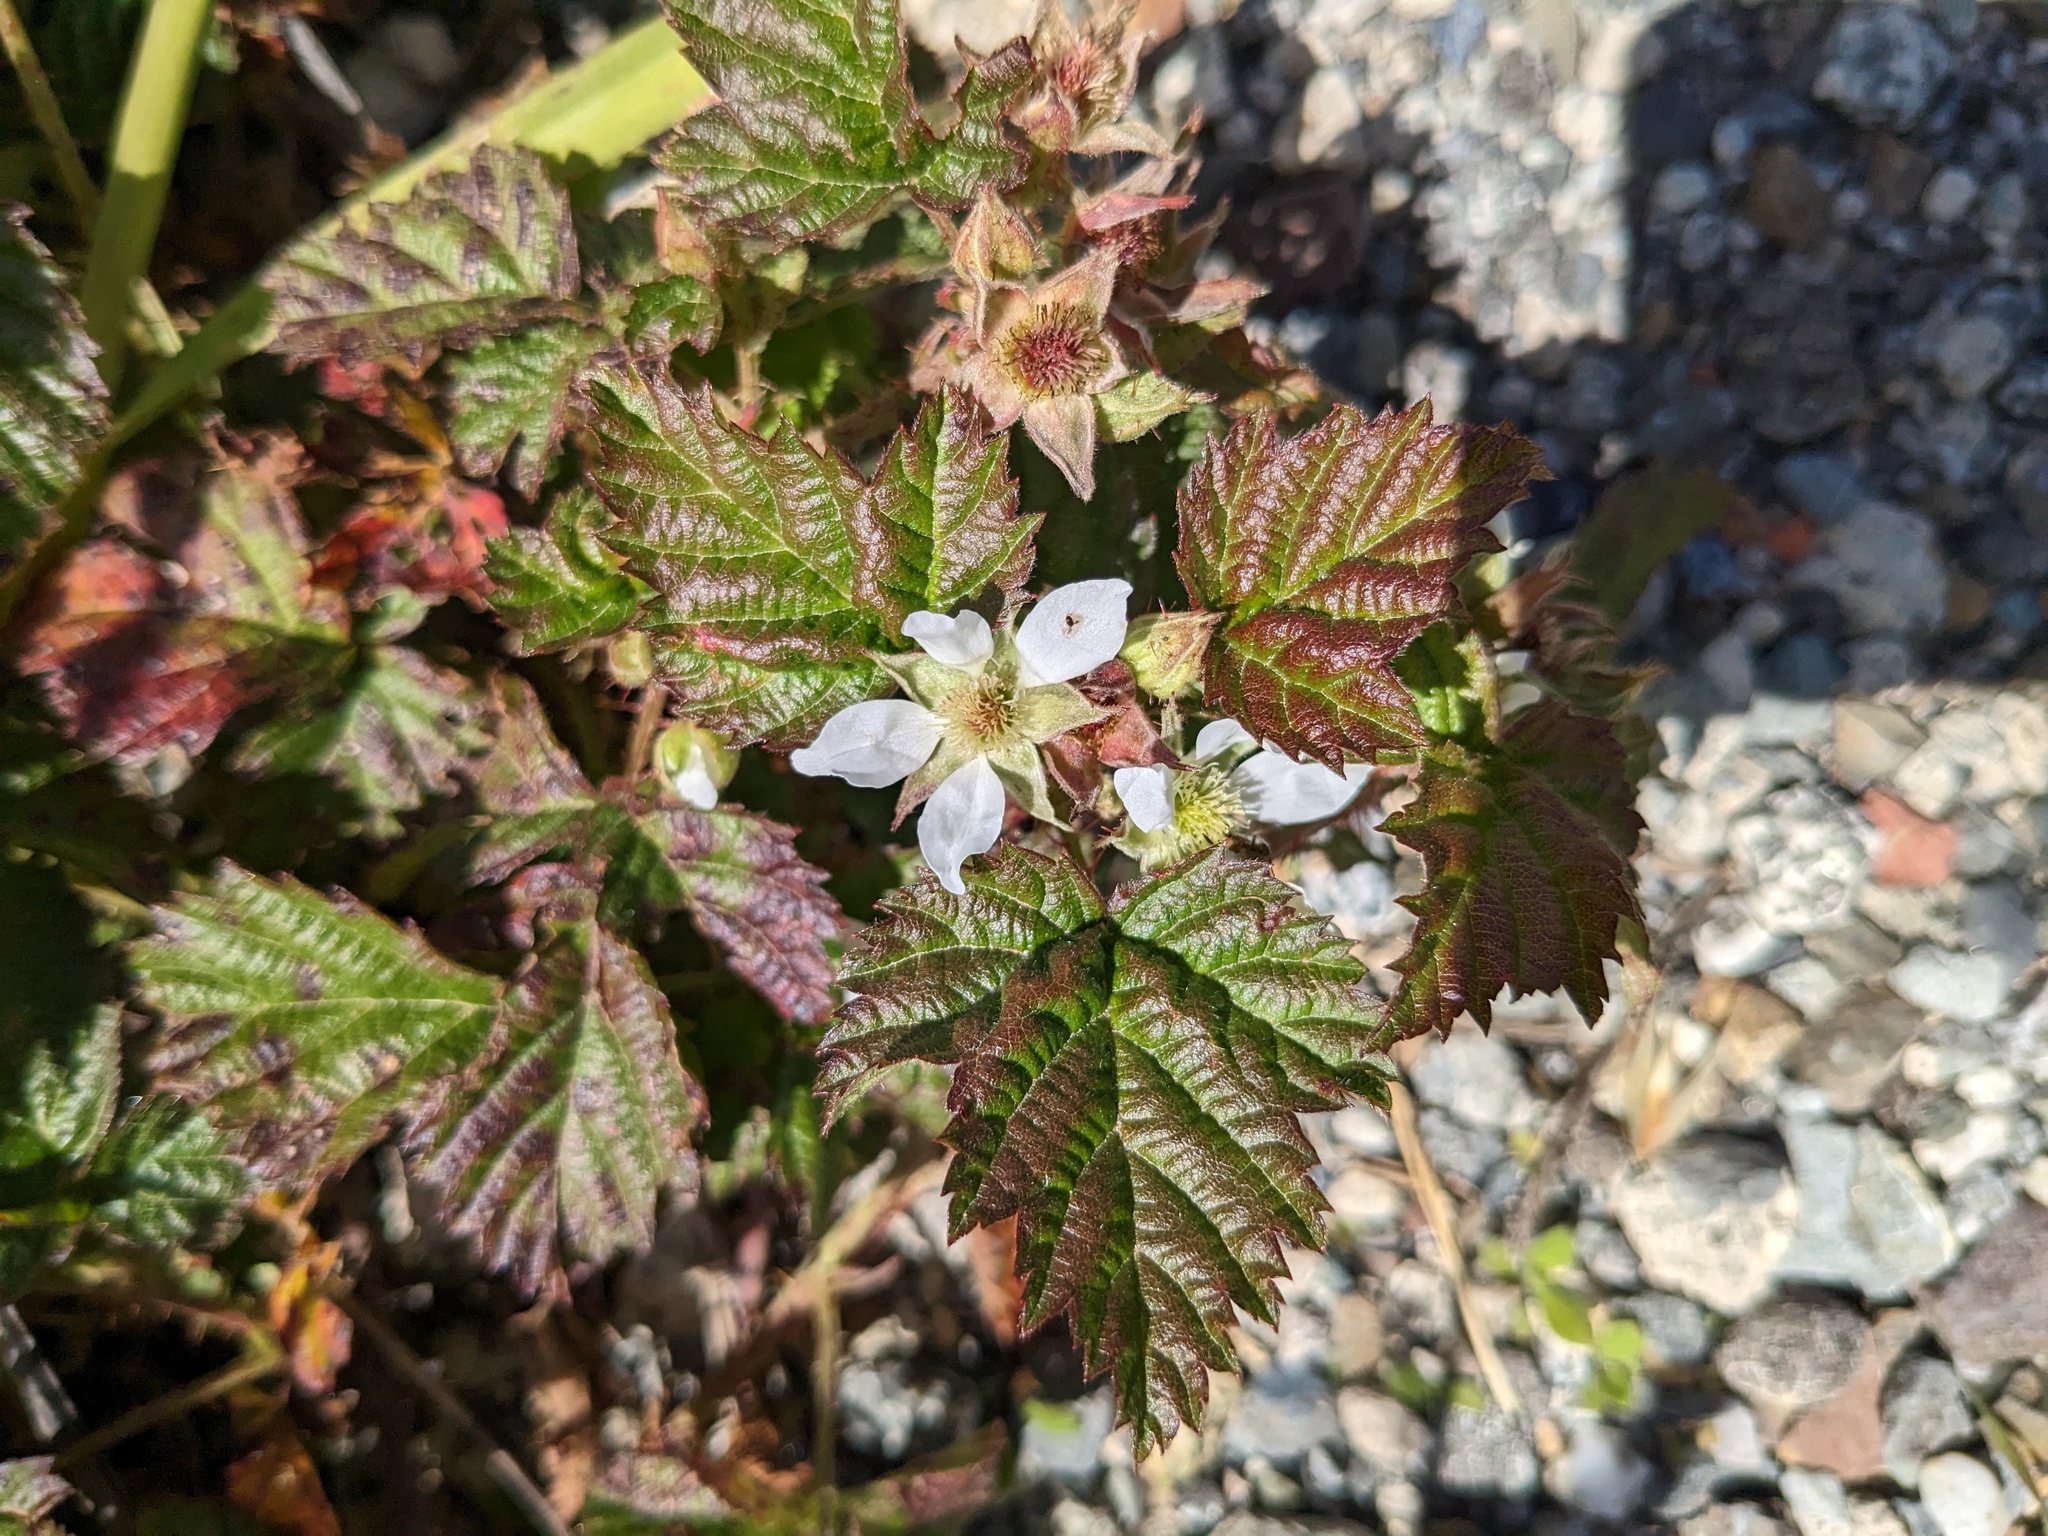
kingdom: Plantae
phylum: Tracheophyta
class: Magnoliopsida
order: Rosales
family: Rosaceae
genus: Rubus
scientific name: Rubus ursinus
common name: Pacific blackberry
